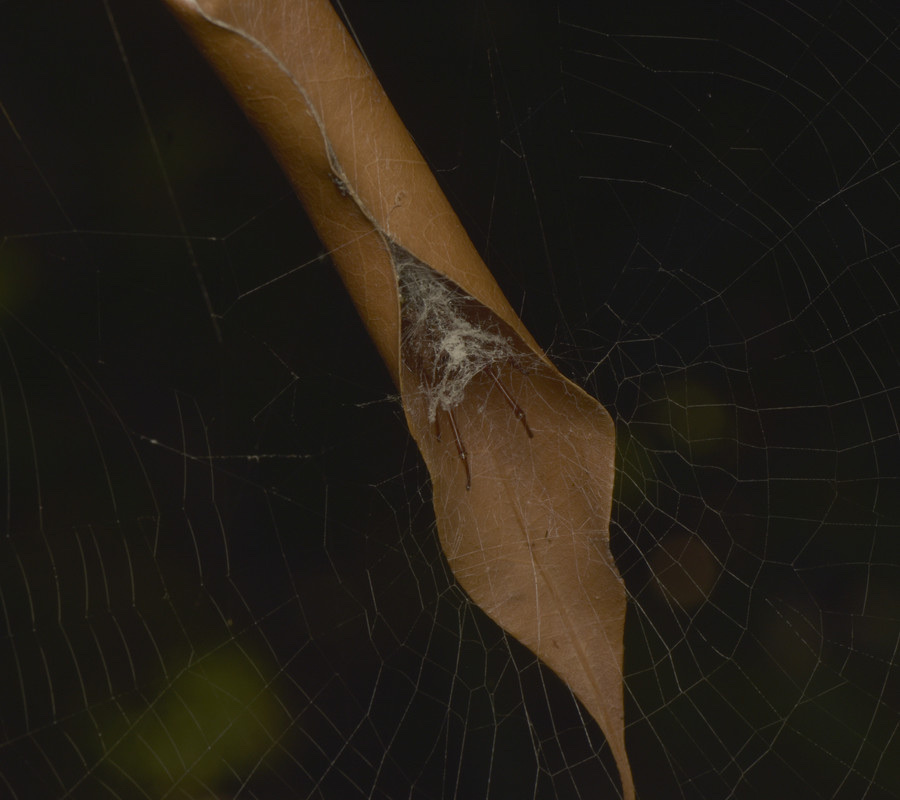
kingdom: Animalia
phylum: Arthropoda
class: Arachnida
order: Araneae
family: Araneidae
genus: Phonognatha
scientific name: Phonognatha graeffei
